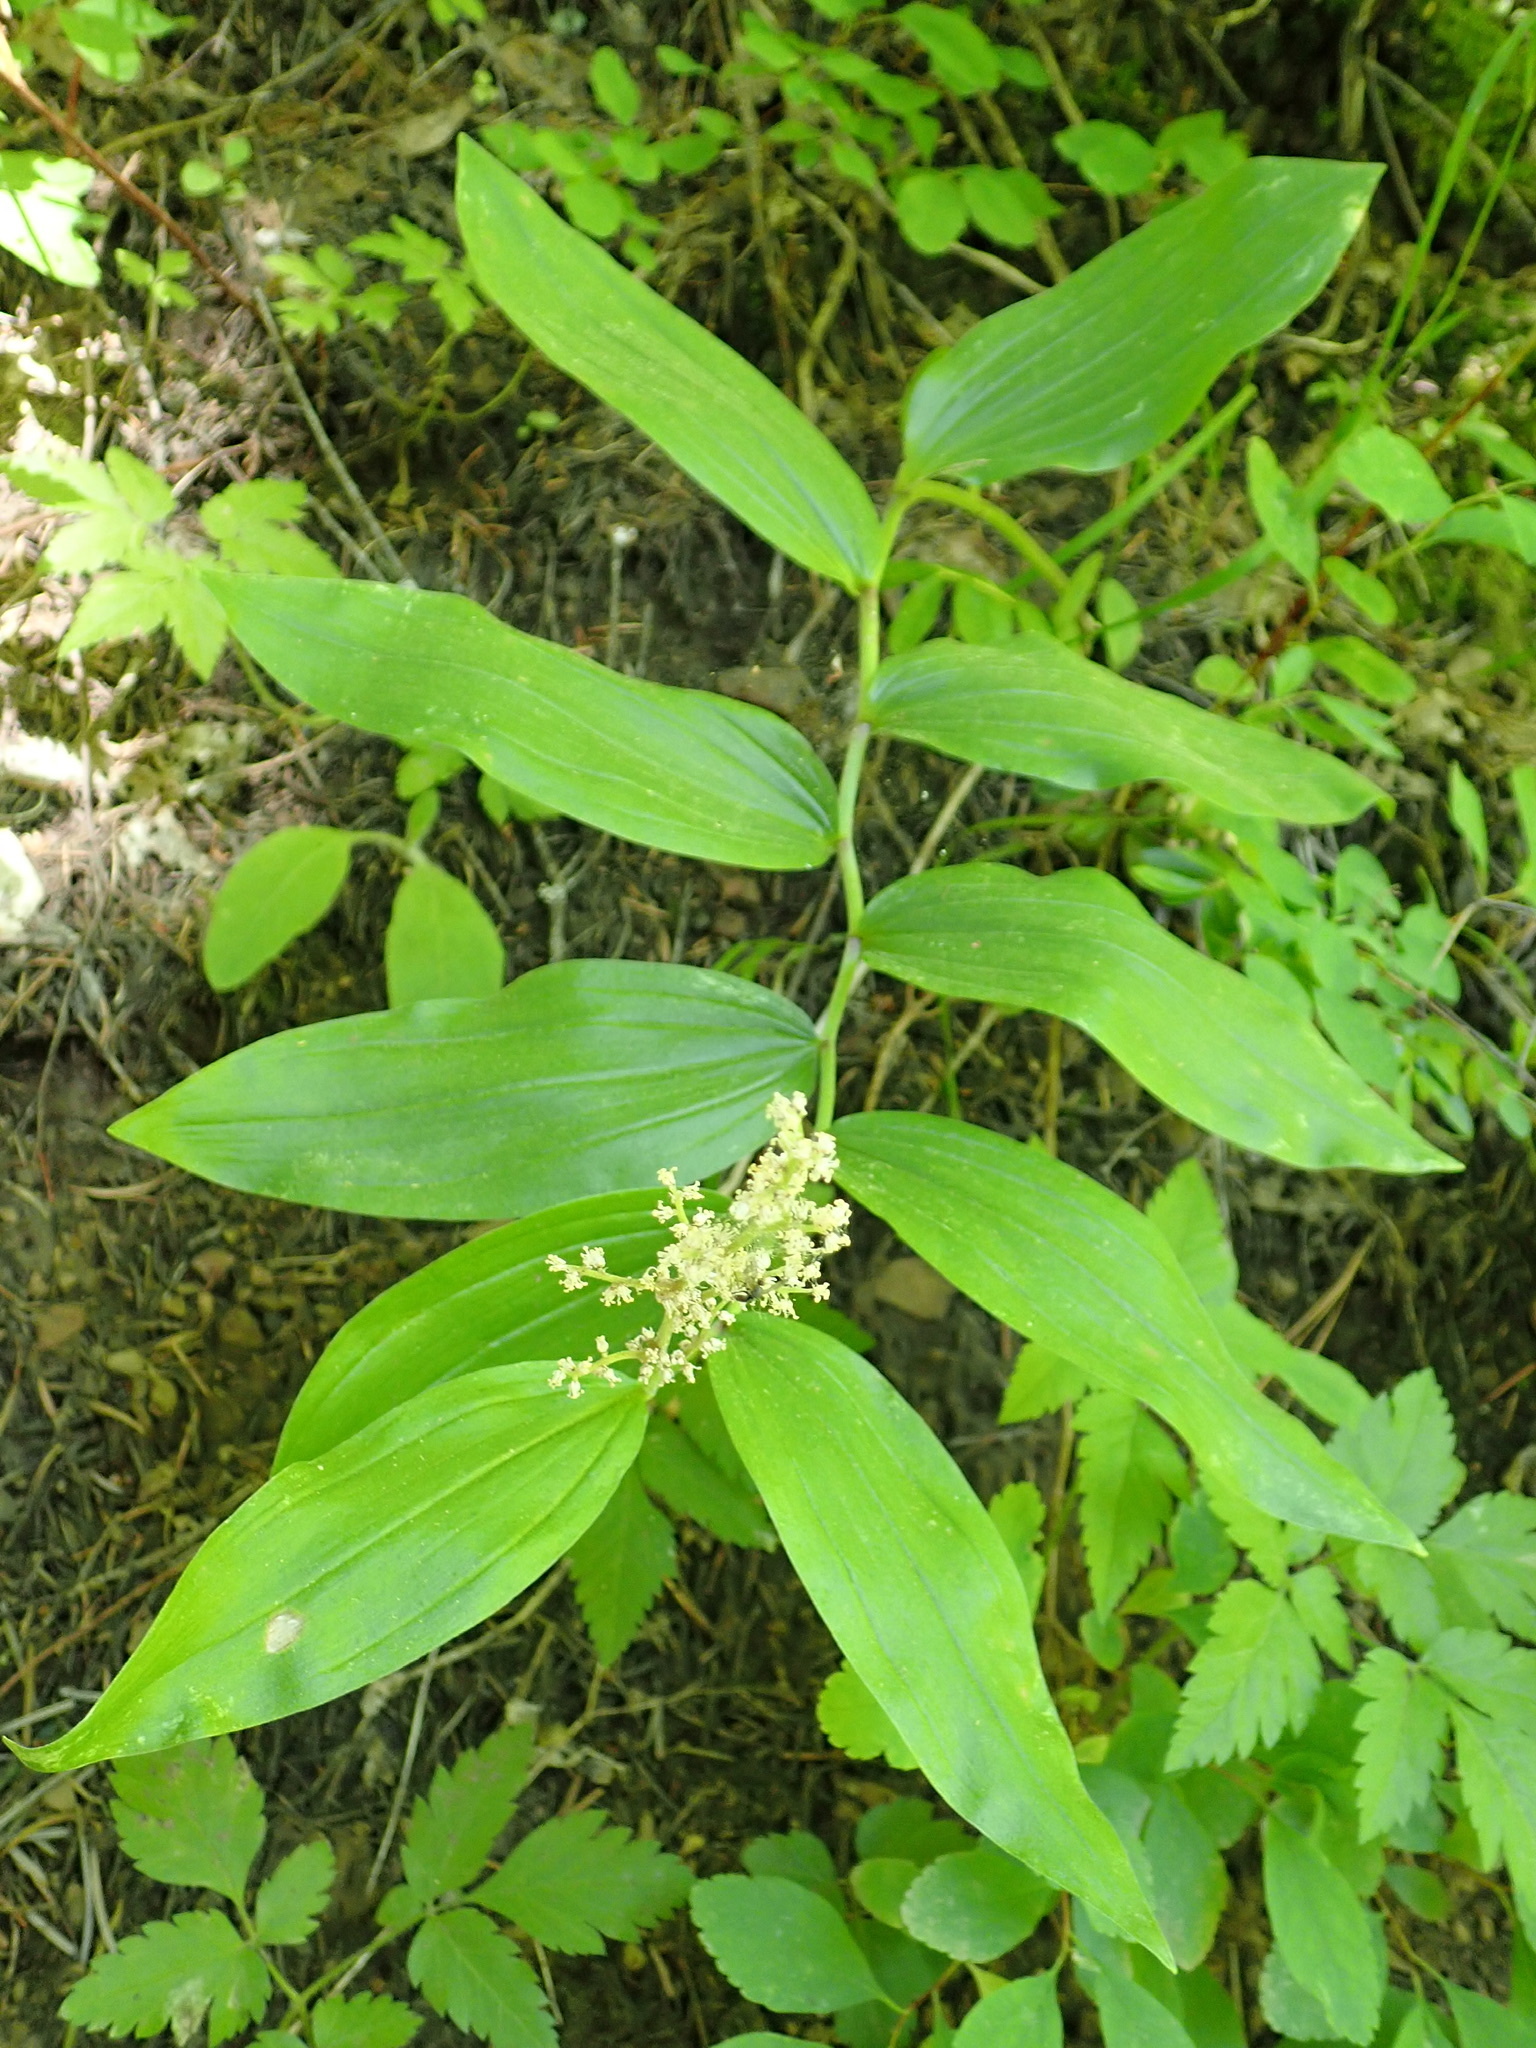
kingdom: Plantae
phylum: Tracheophyta
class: Liliopsida
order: Asparagales
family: Asparagaceae
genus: Maianthemum
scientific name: Maianthemum racemosum
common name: False spikenard
